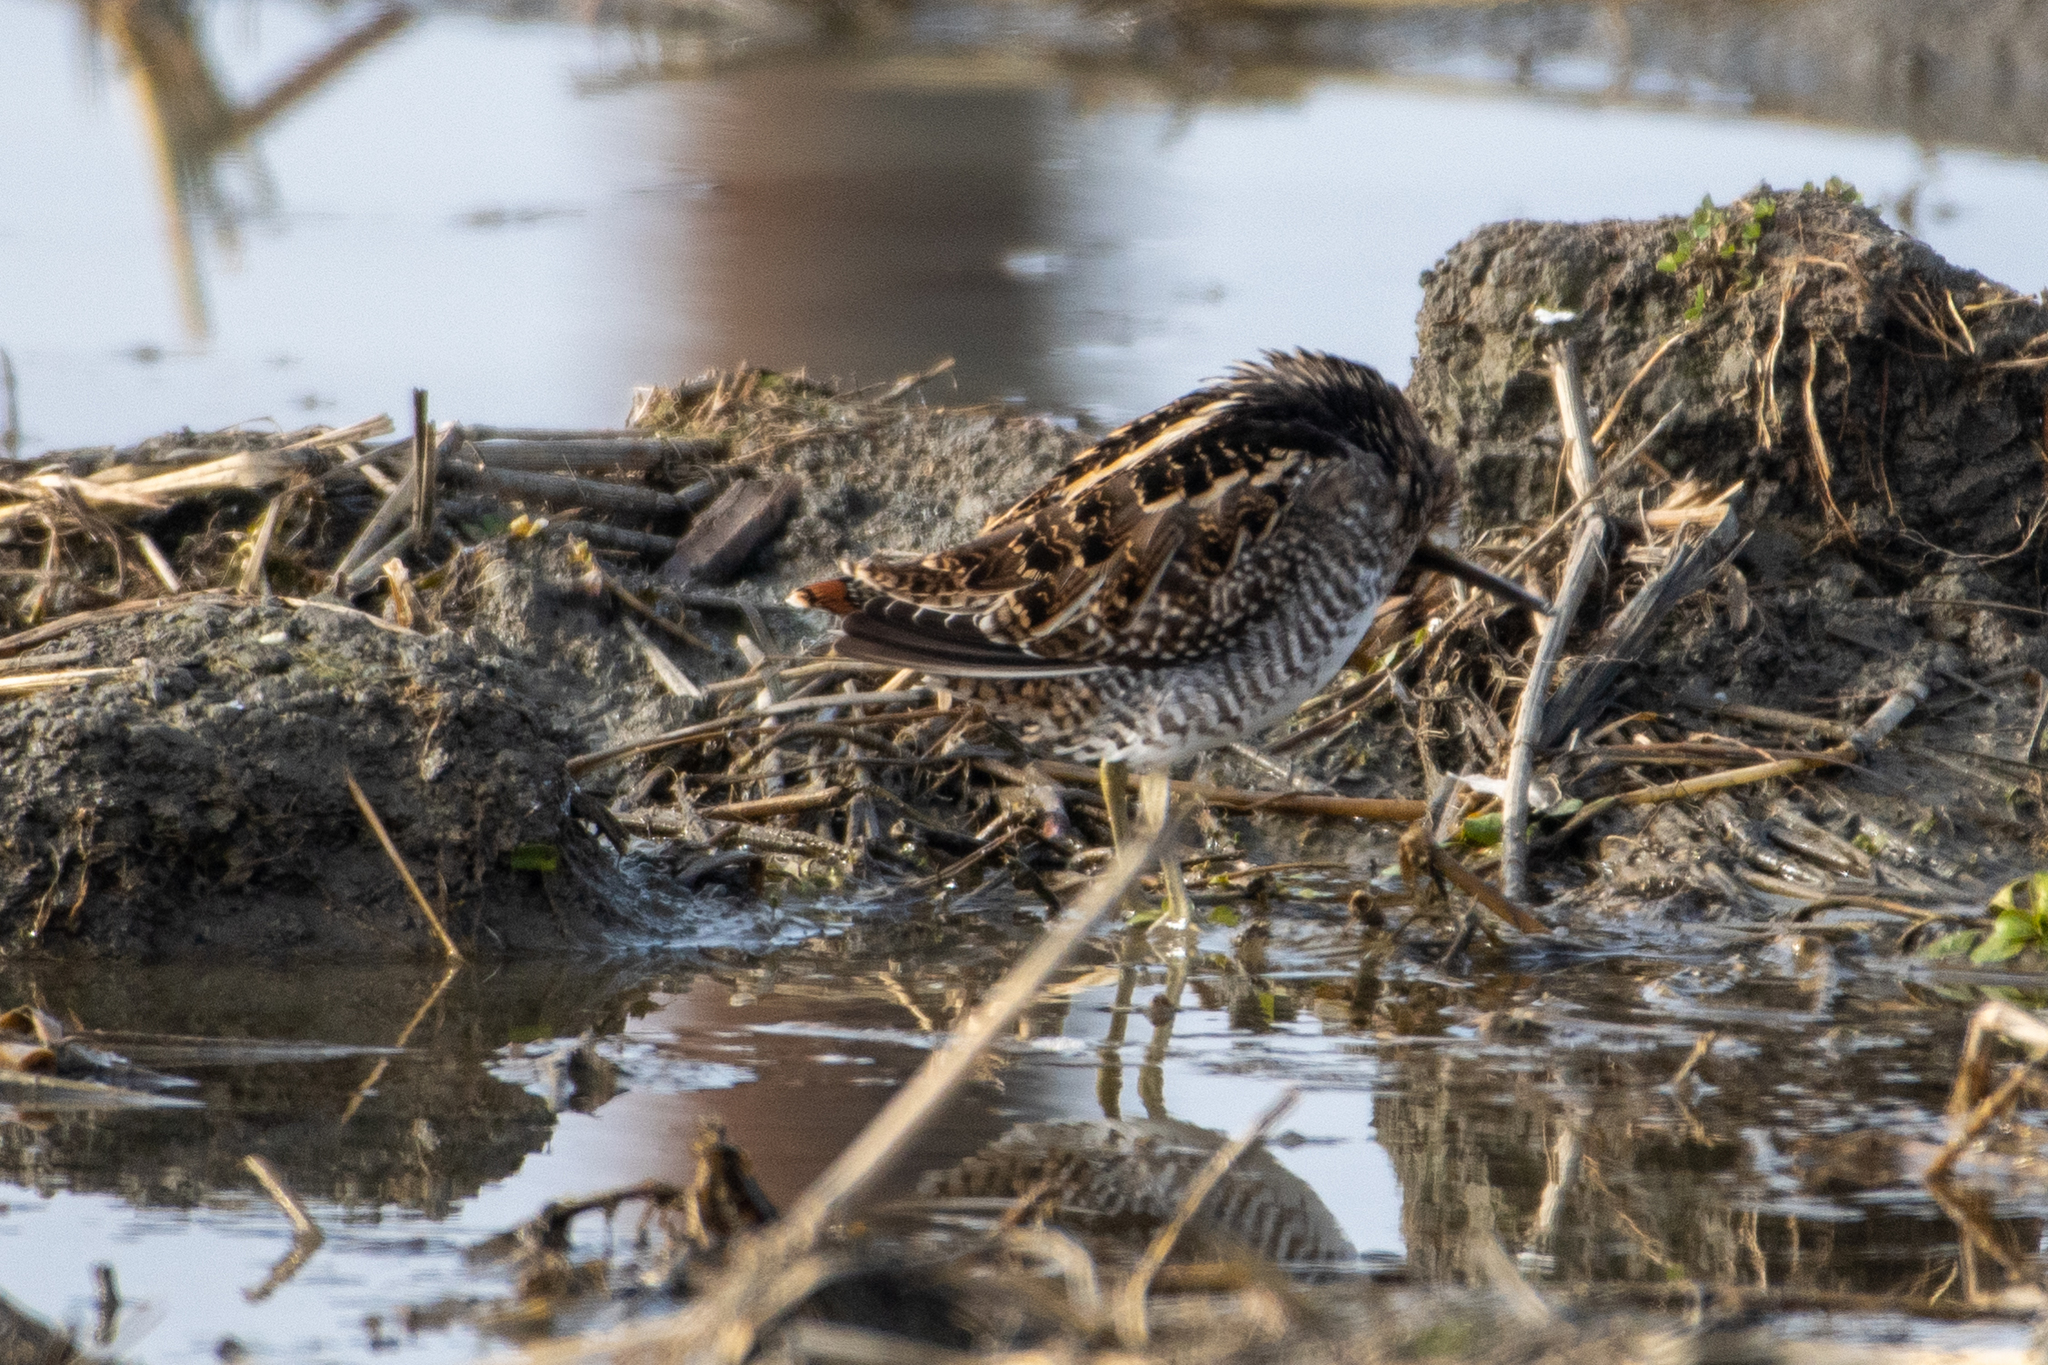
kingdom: Animalia
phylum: Chordata
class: Aves
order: Charadriiformes
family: Scolopacidae
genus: Gallinago
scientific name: Gallinago delicata
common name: Wilson's snipe
